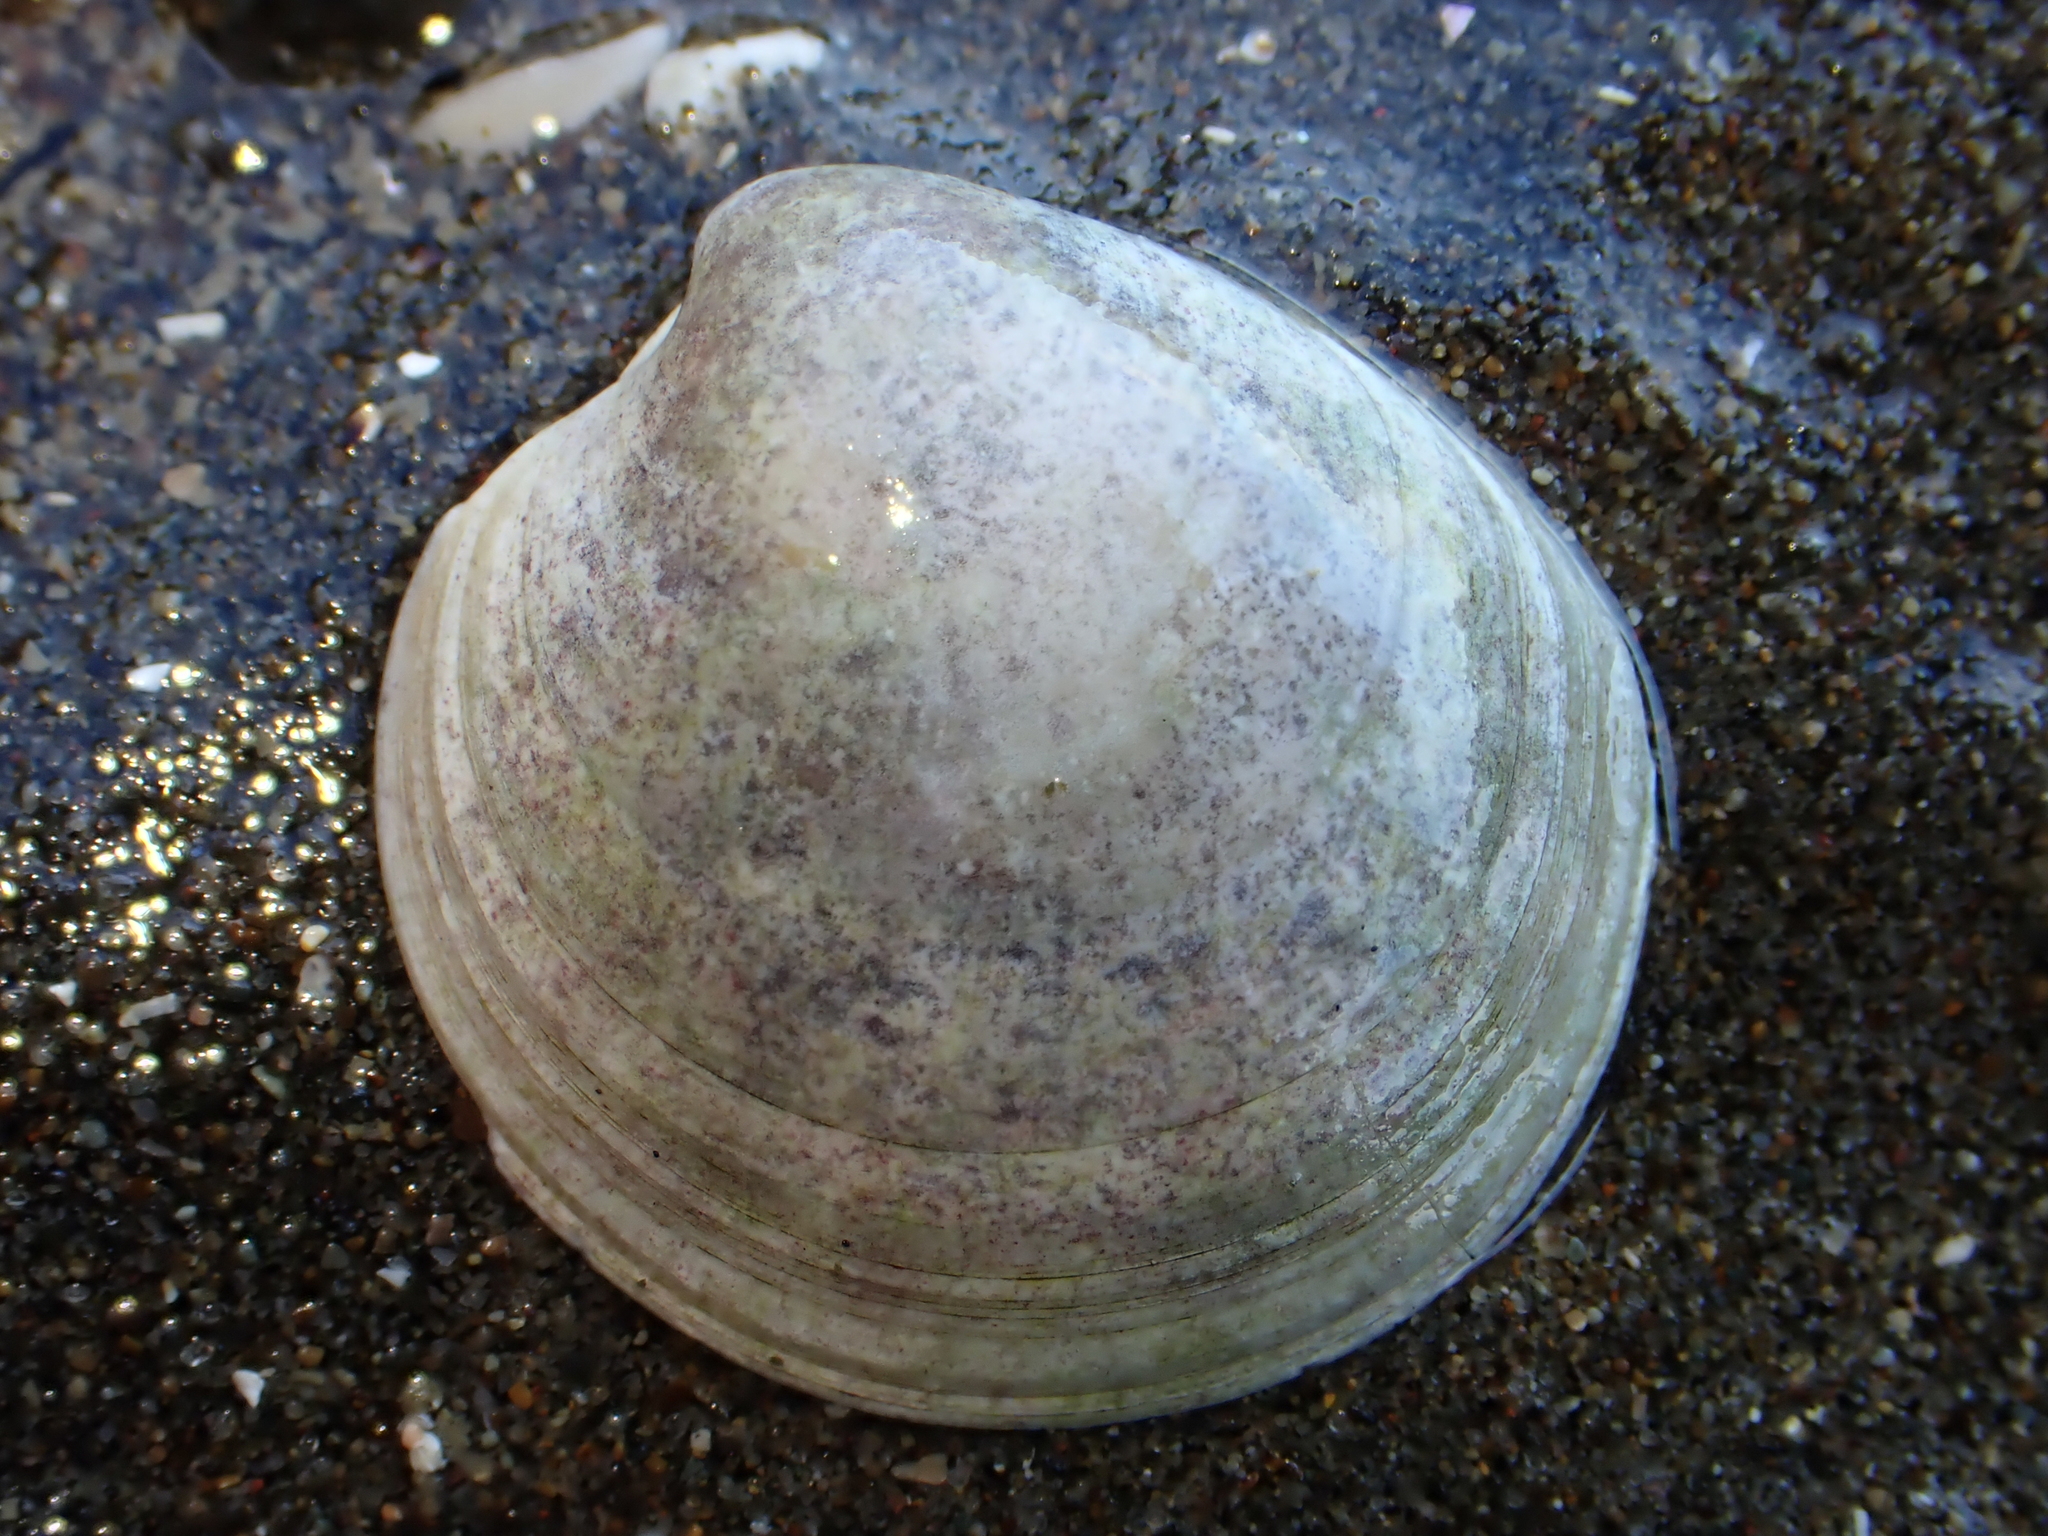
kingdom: Animalia
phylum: Mollusca
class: Bivalvia
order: Venerida
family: Veneridae
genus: Dosinia
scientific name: Dosinia lambata
